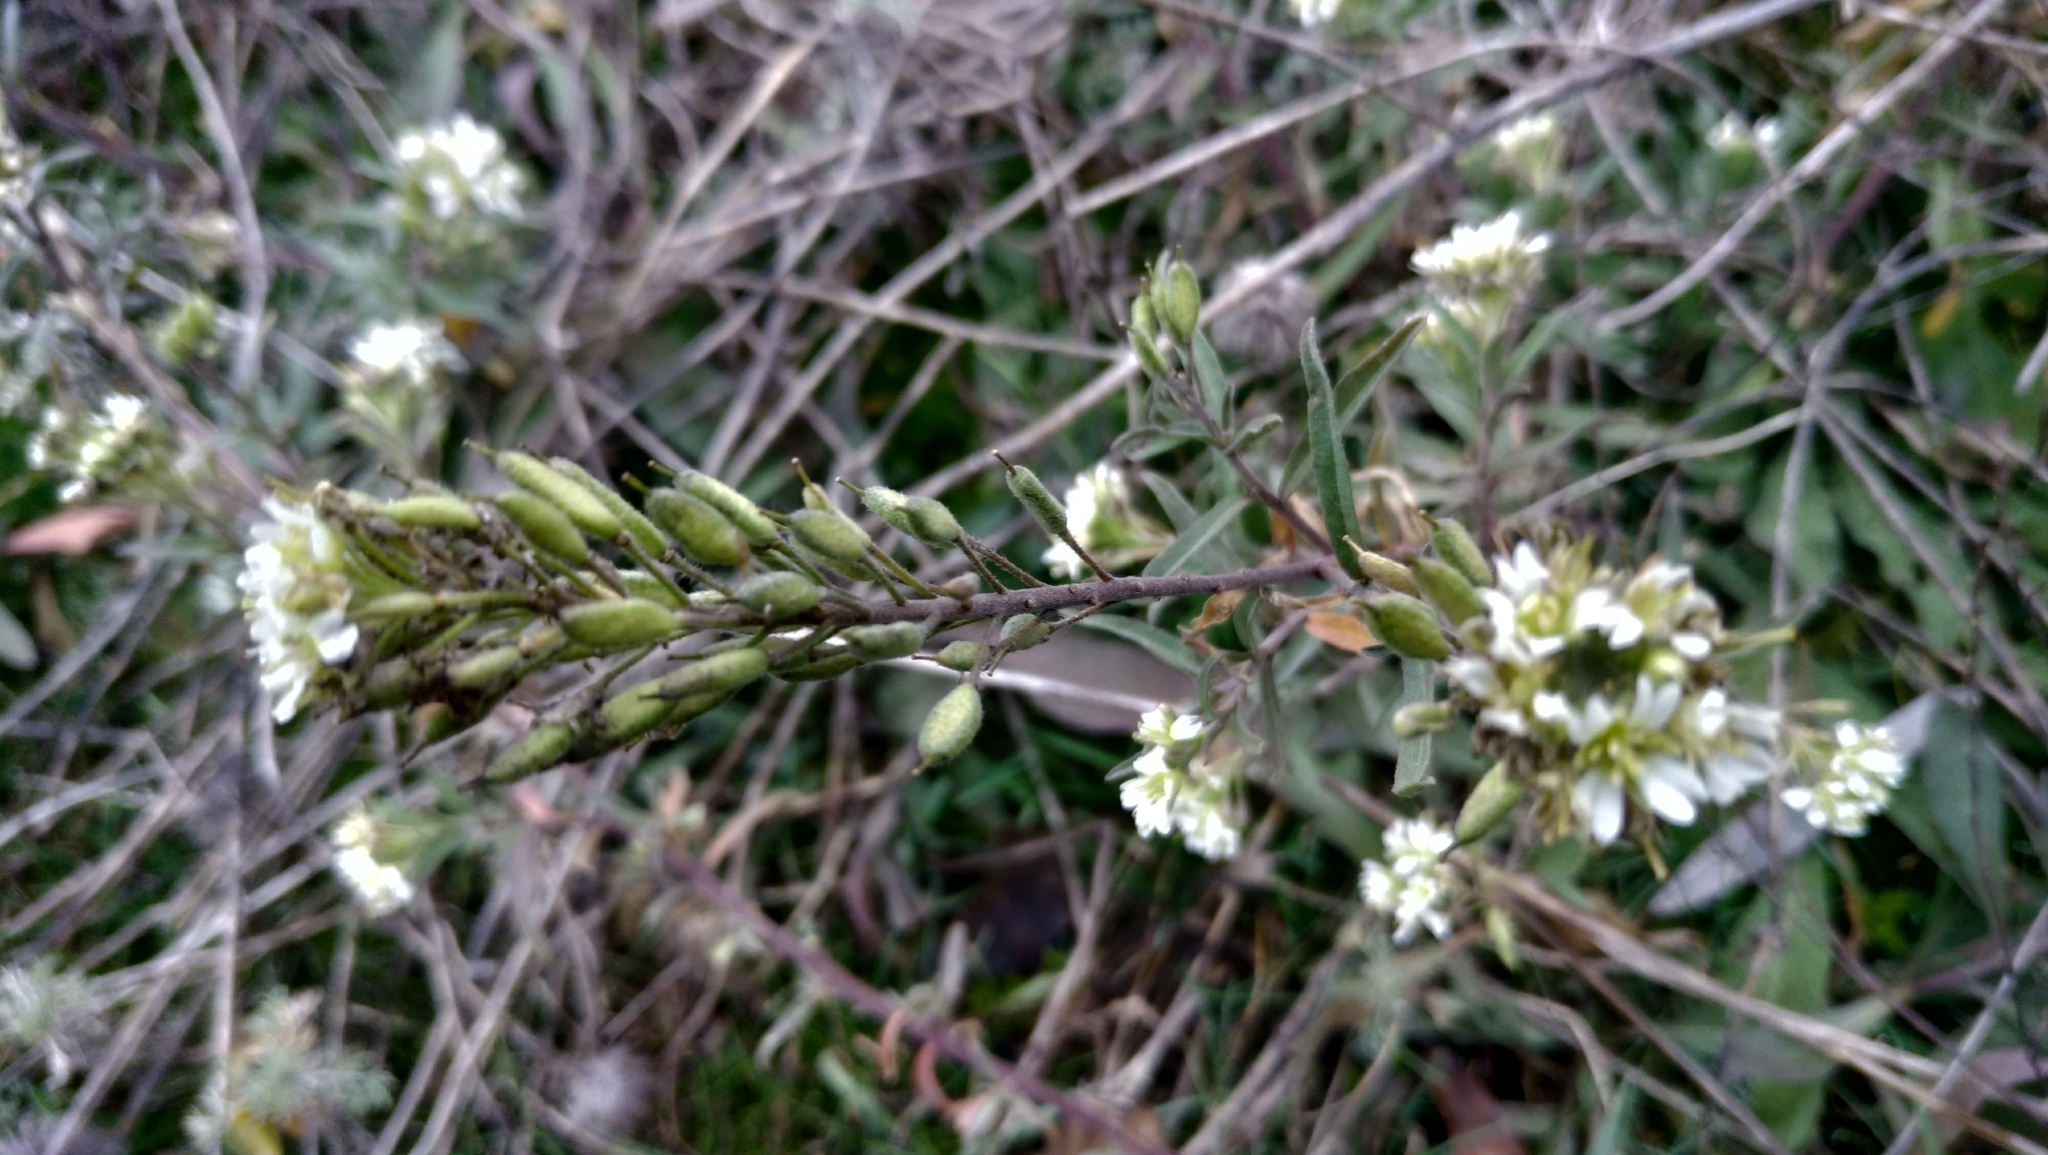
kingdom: Plantae
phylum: Tracheophyta
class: Magnoliopsida
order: Brassicales
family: Brassicaceae
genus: Berteroa
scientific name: Berteroa incana
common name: Hoary alison
